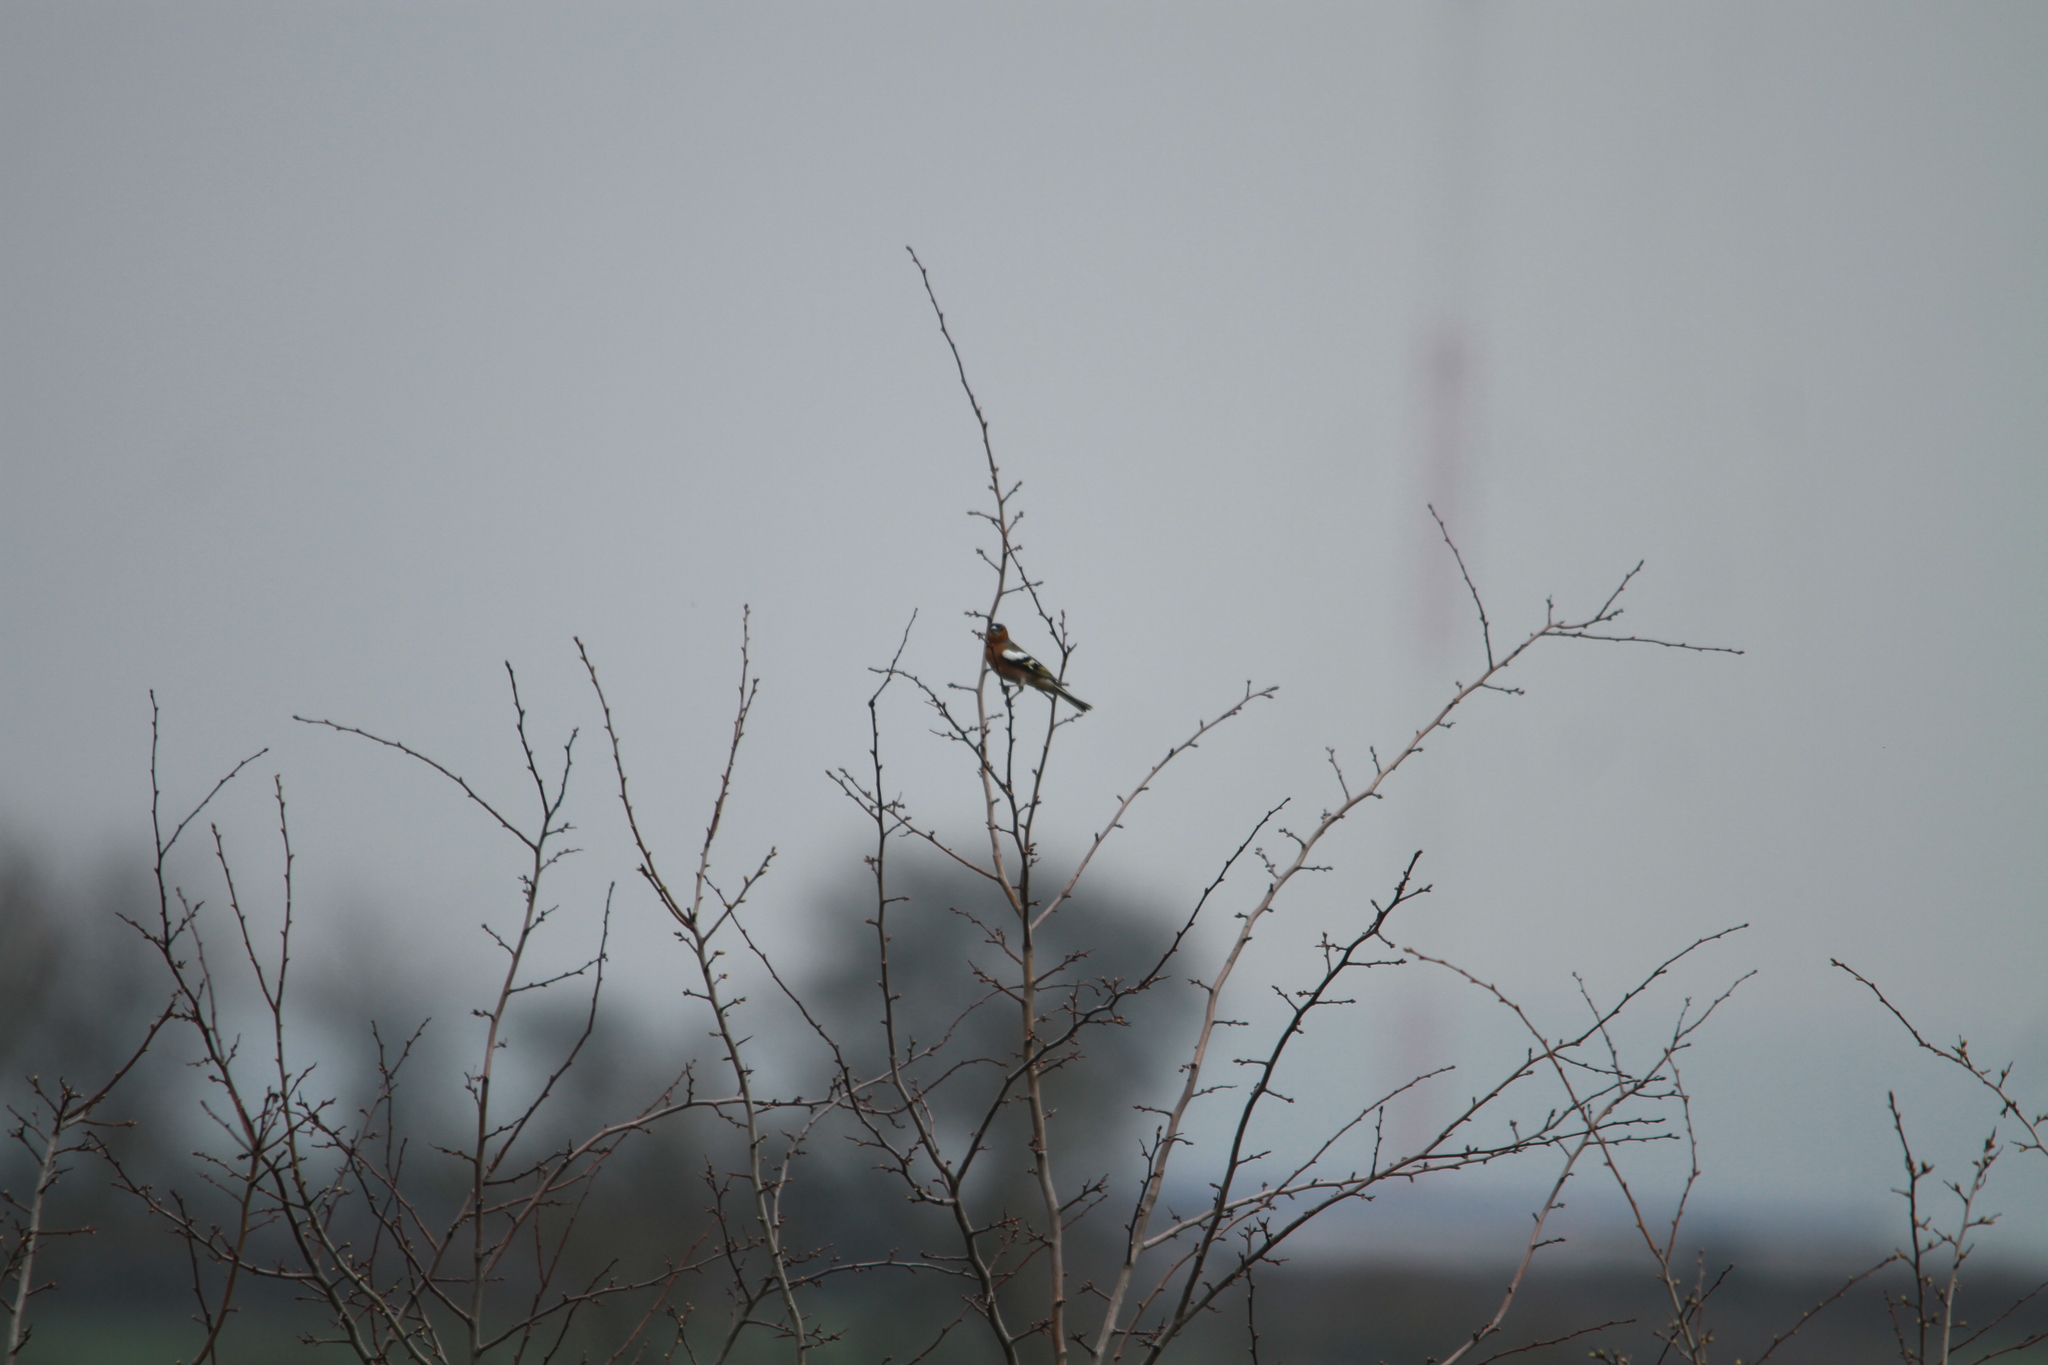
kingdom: Animalia
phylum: Chordata
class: Aves
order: Passeriformes
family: Fringillidae
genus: Fringilla
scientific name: Fringilla coelebs
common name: Common chaffinch
